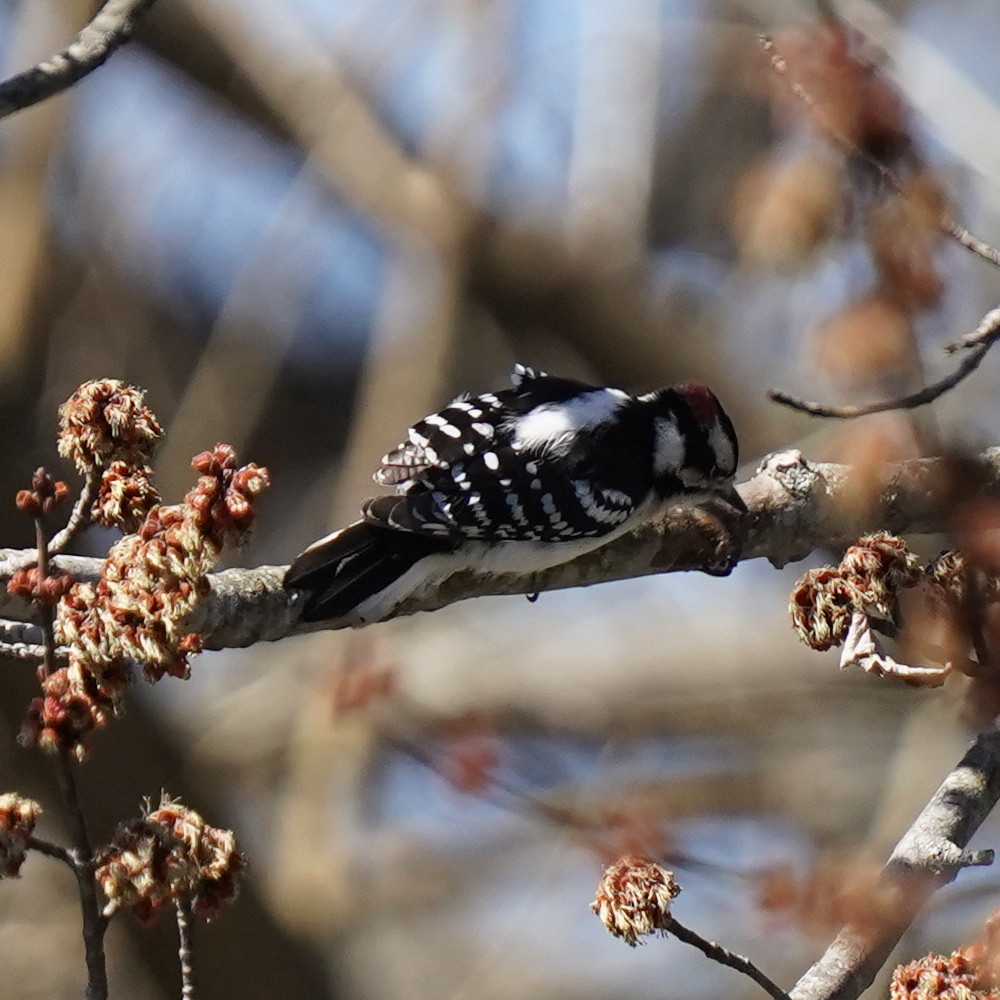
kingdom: Animalia
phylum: Chordata
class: Aves
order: Piciformes
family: Picidae
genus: Dryobates
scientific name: Dryobates pubescens
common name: Downy woodpecker
